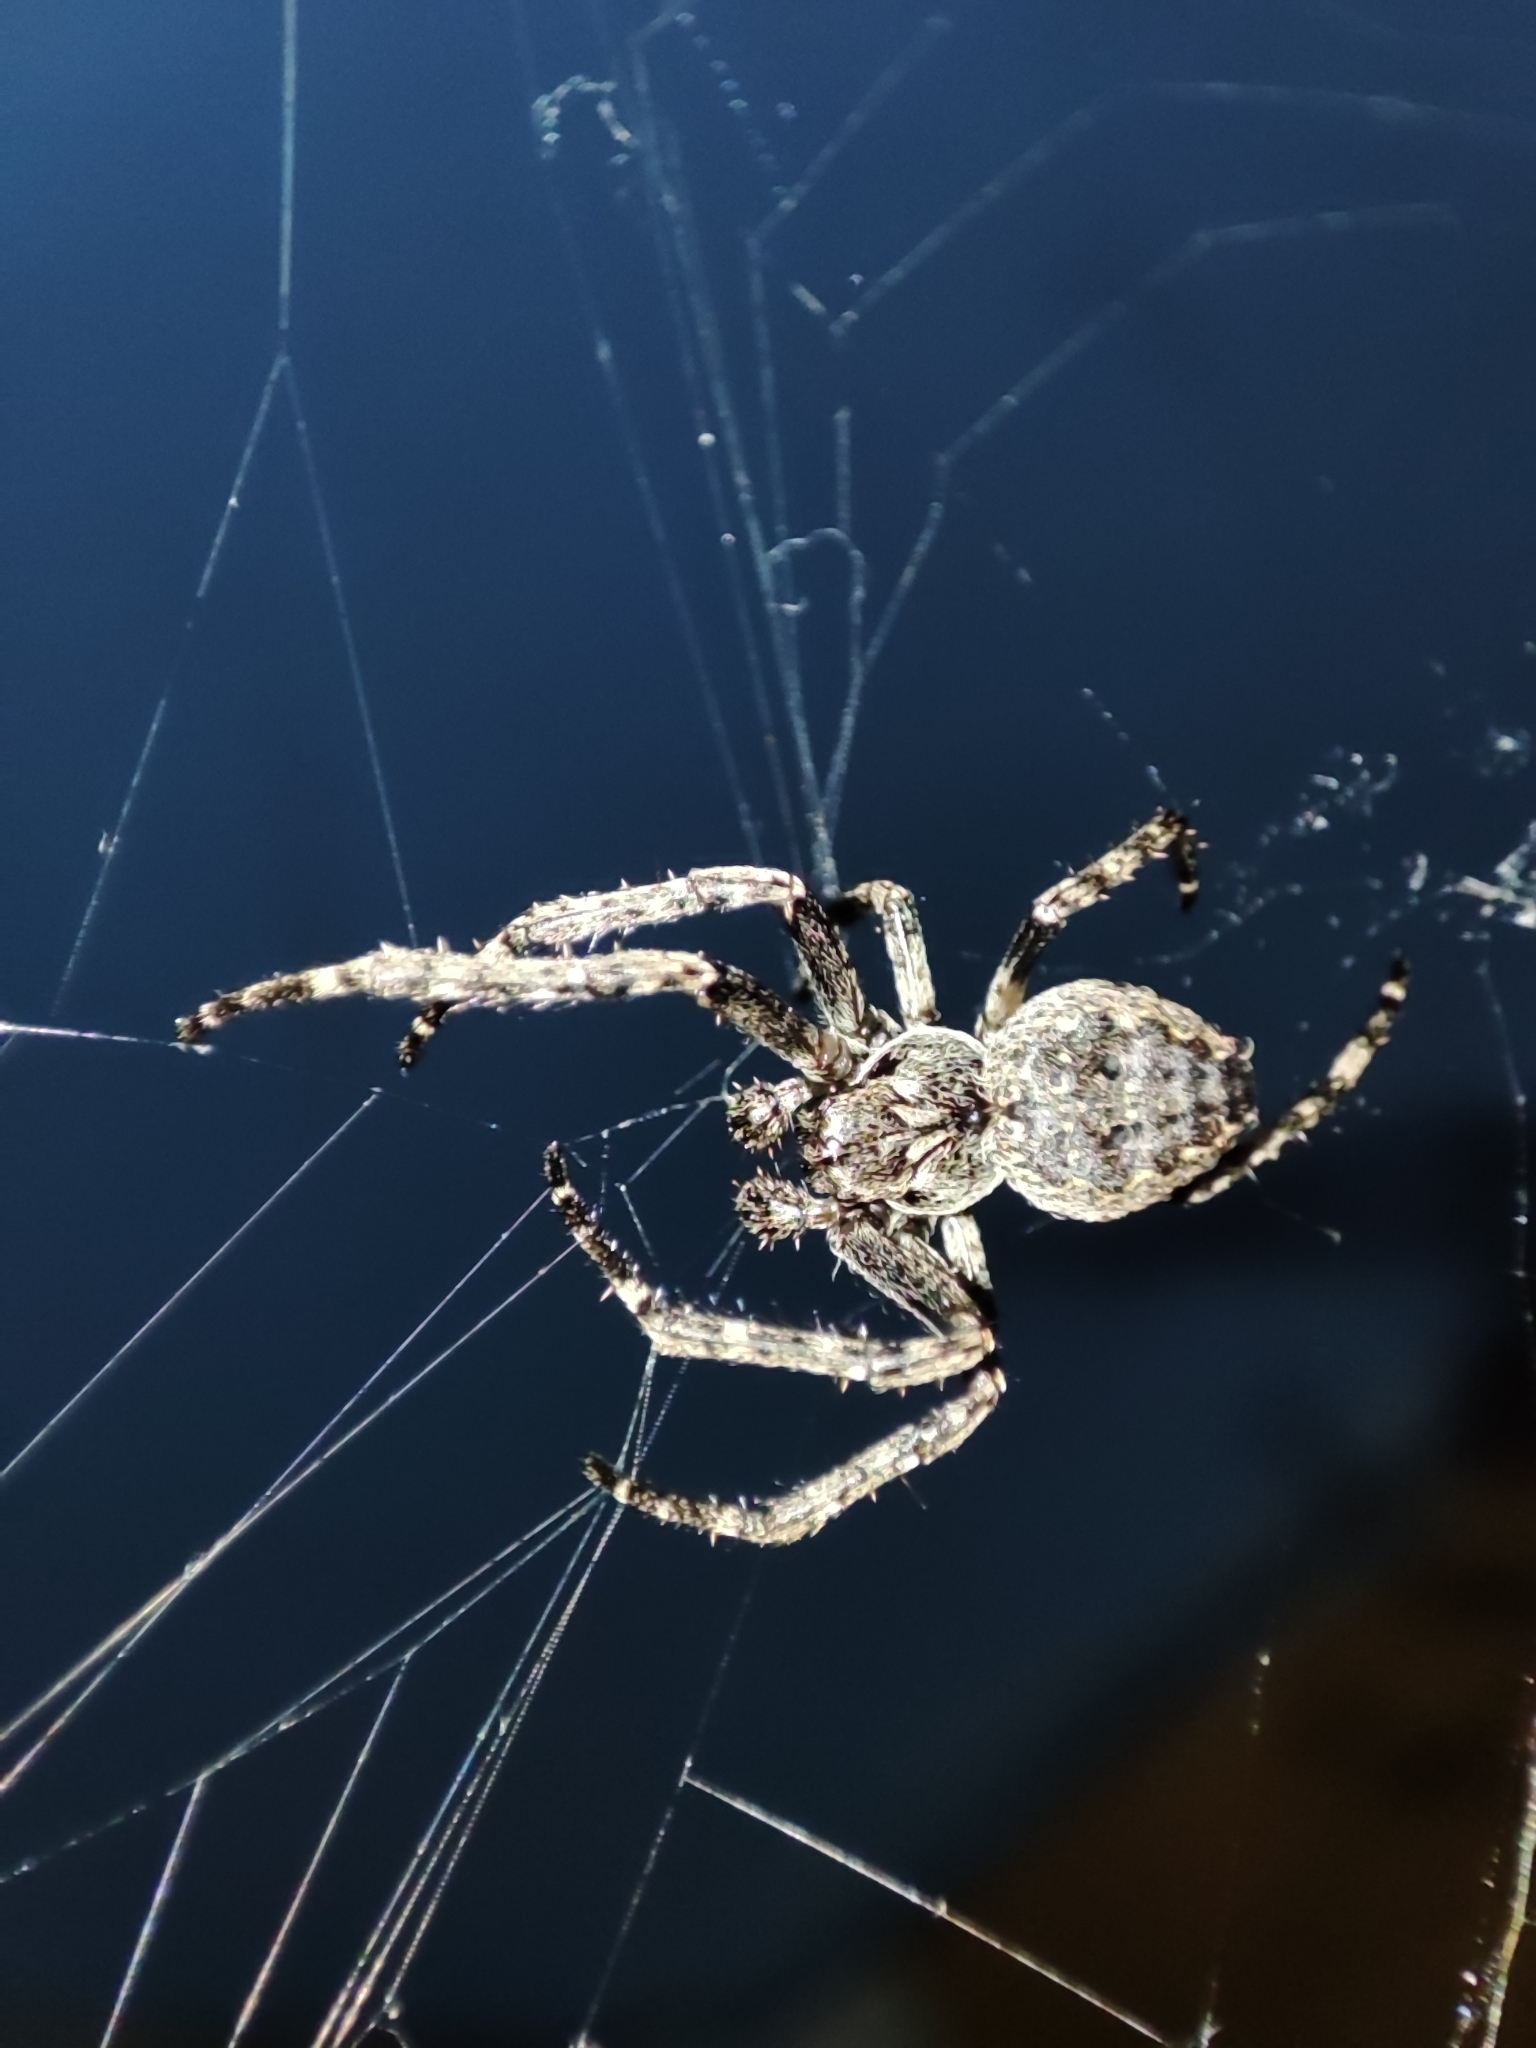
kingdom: Animalia
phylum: Arthropoda
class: Arachnida
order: Araneae
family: Araneidae
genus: Nuctenea
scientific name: Nuctenea umbratica
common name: Toad spider
